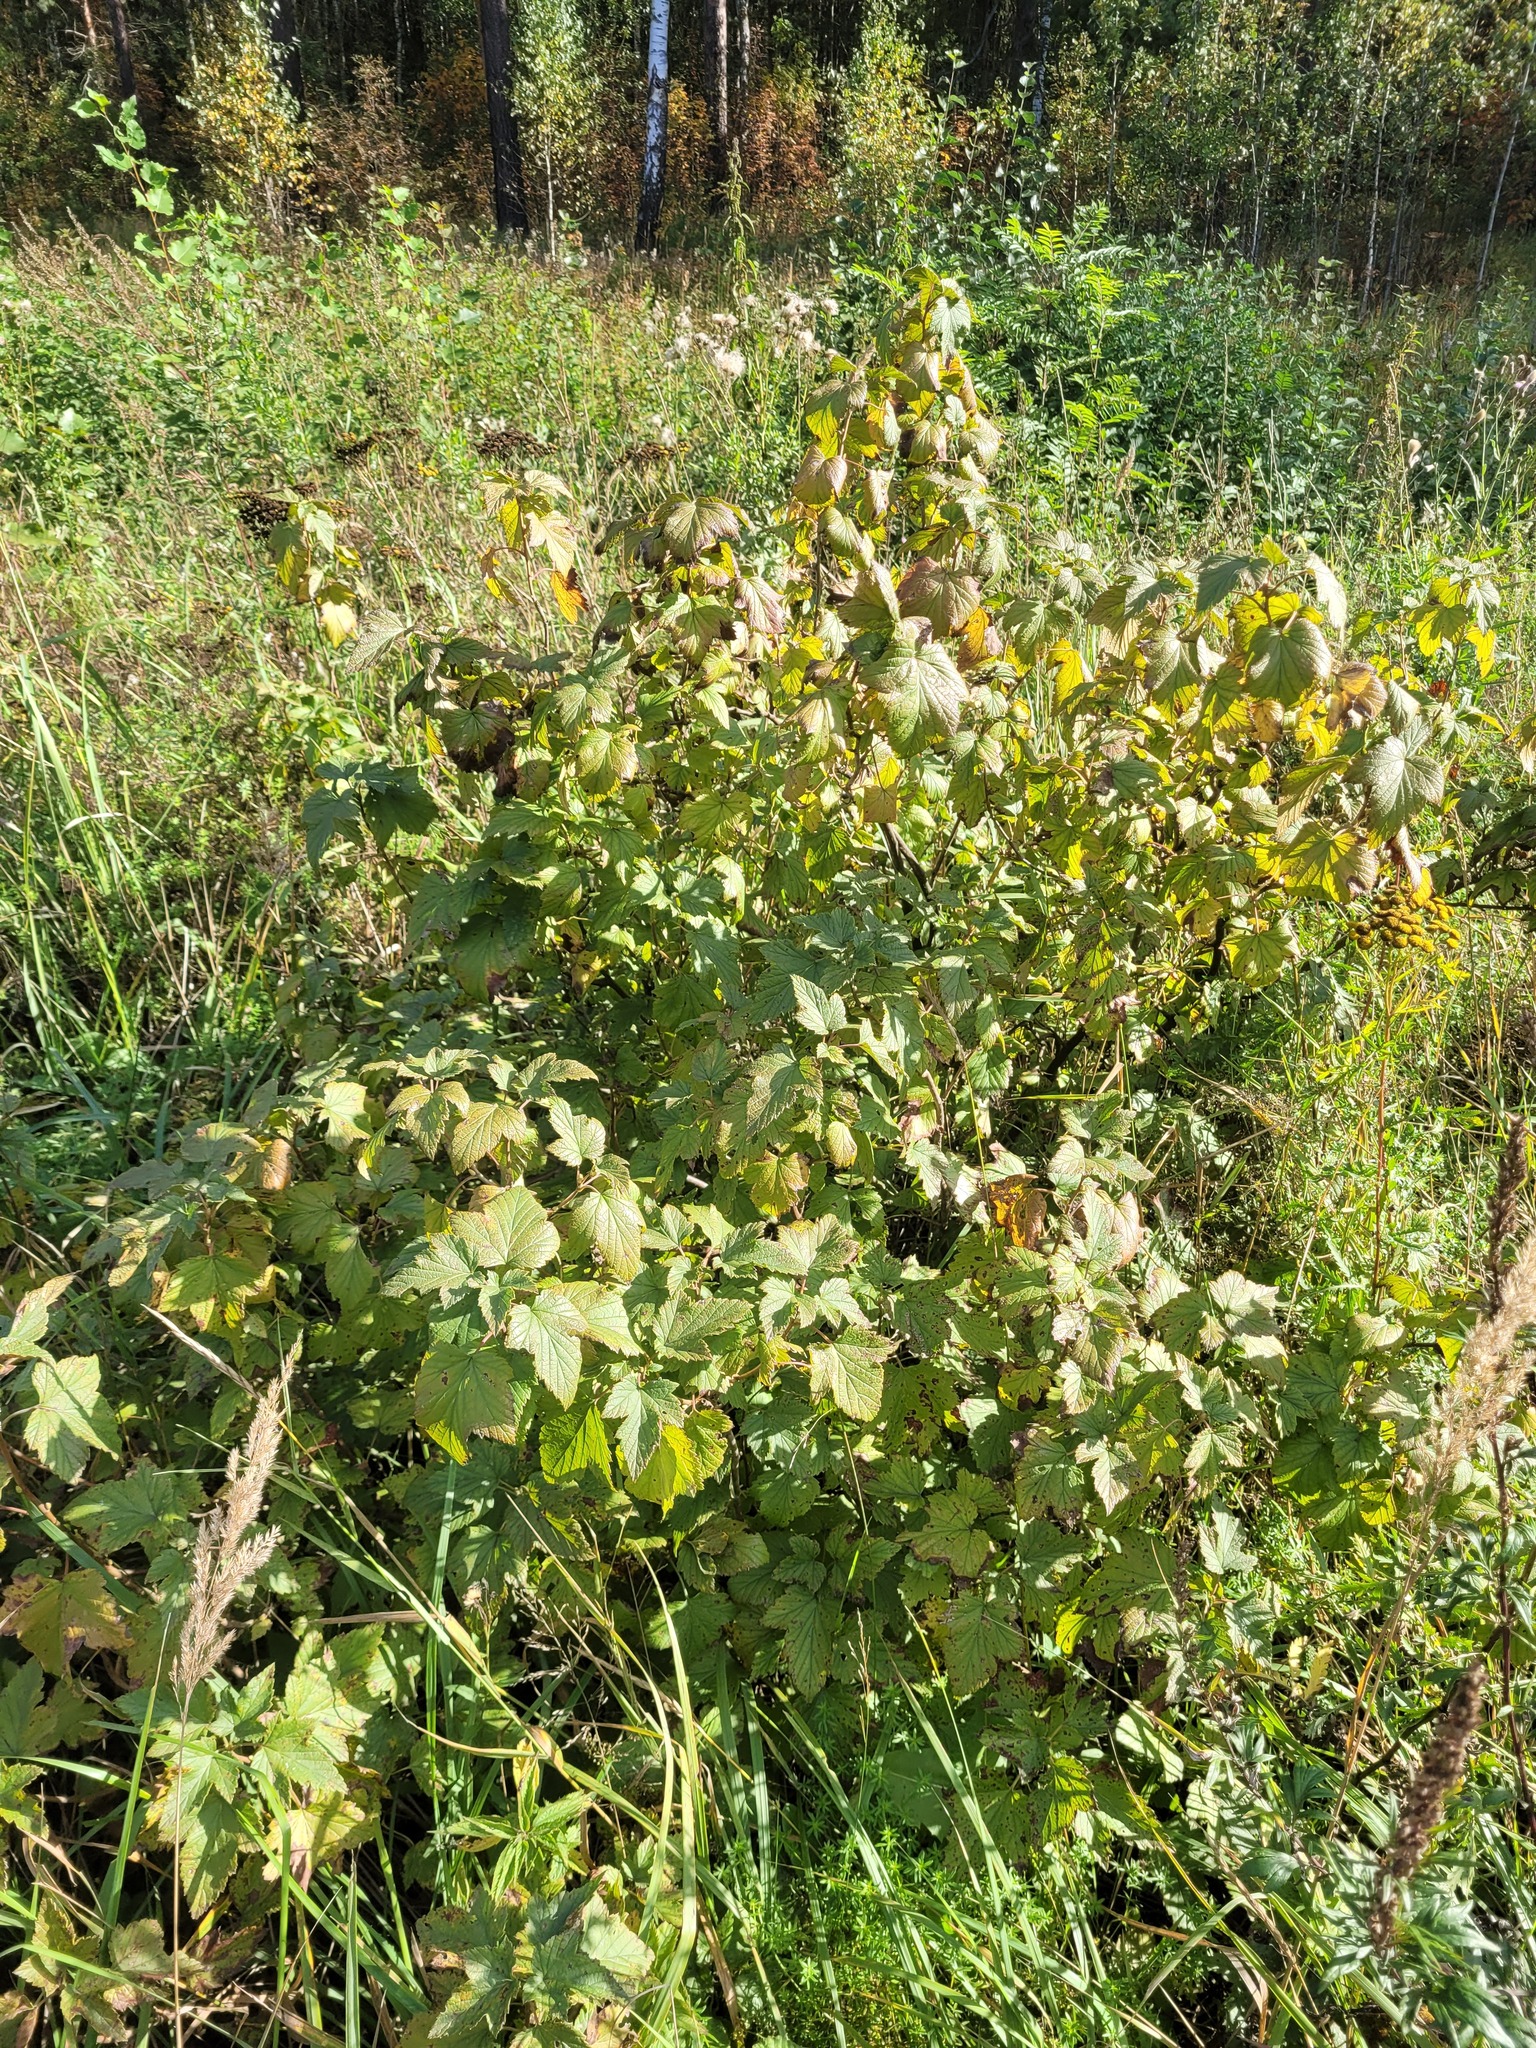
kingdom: Plantae
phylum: Tracheophyta
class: Magnoliopsida
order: Saxifragales
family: Grossulariaceae
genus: Ribes
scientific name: Ribes nigrum
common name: Black currant
